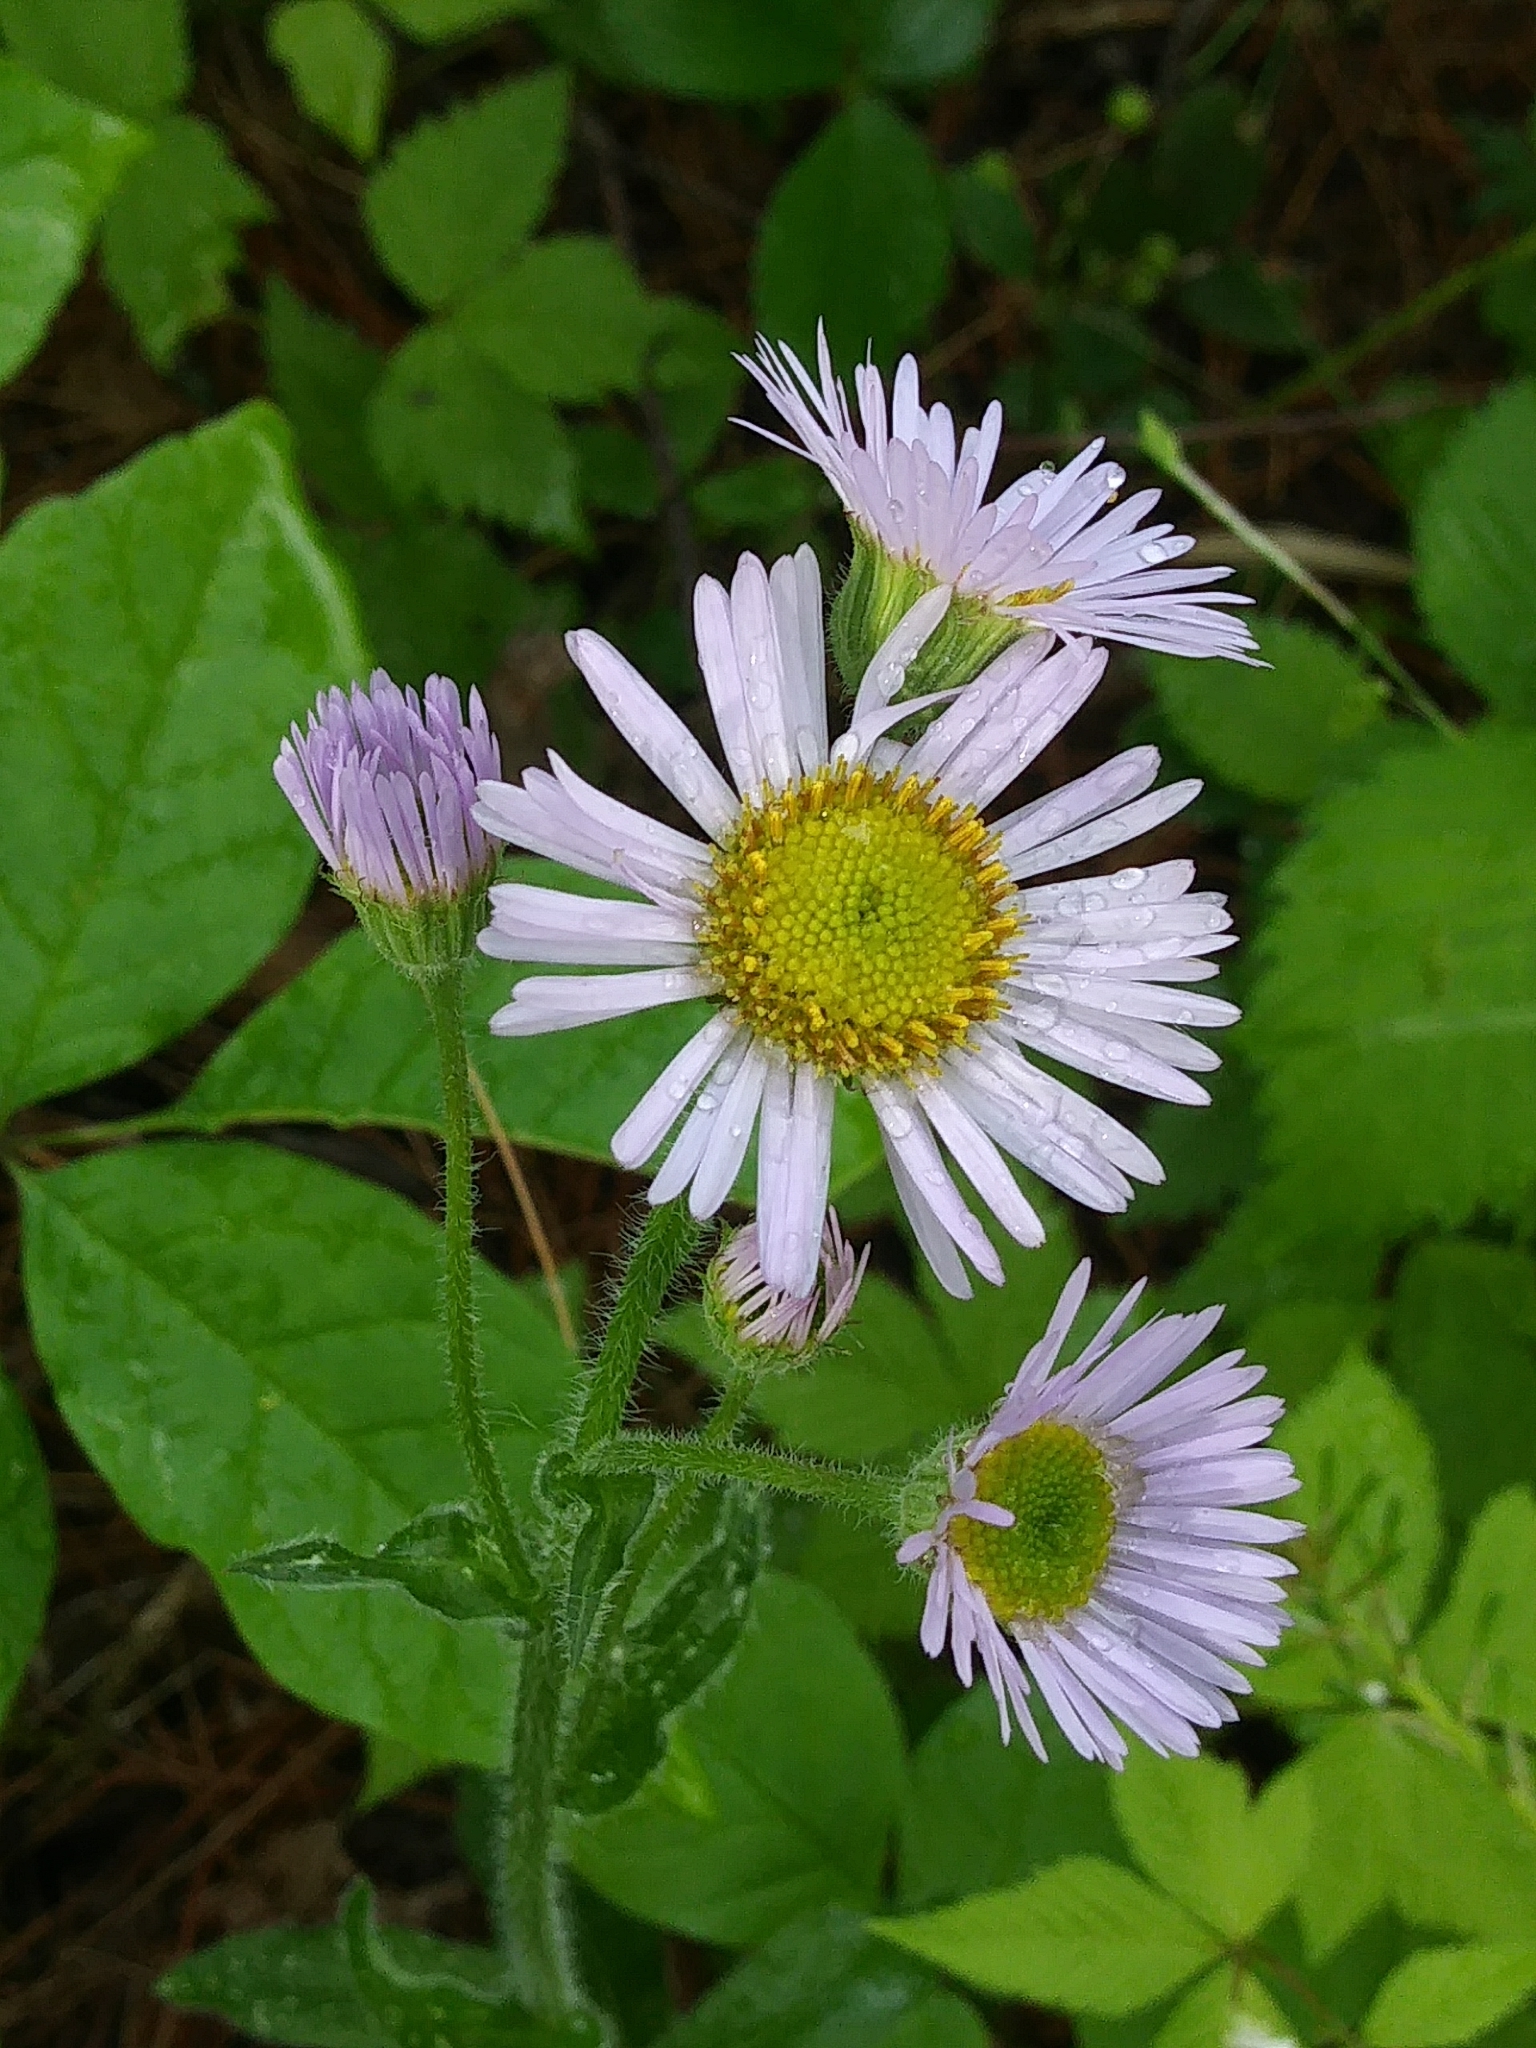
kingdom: Plantae
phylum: Tracheophyta
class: Magnoliopsida
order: Asterales
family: Asteraceae
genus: Erigeron
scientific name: Erigeron pulchellus
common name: Hairy fleabane
